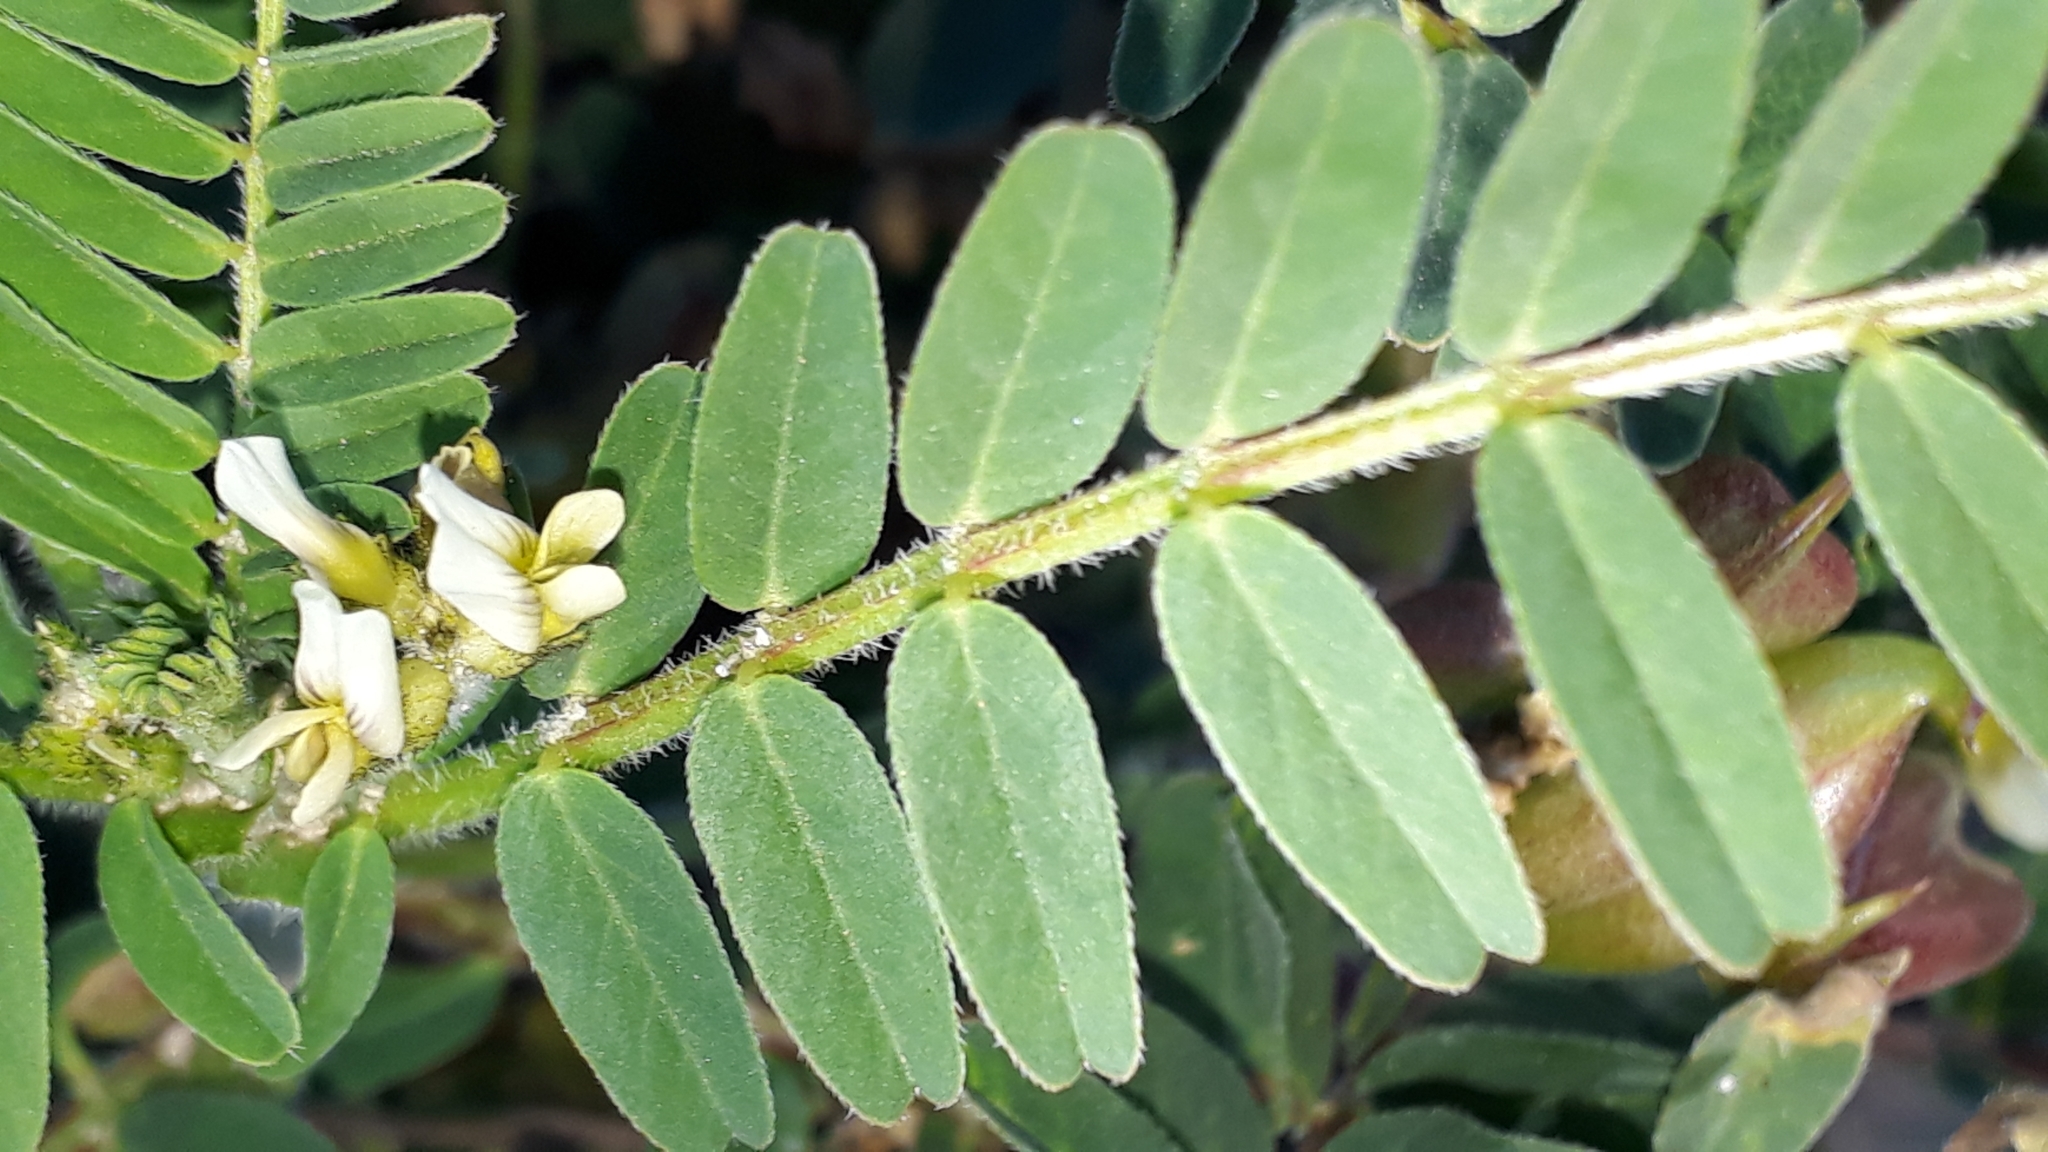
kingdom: Plantae
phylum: Tracheophyta
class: Magnoliopsida
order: Fabales
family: Fabaceae
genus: Astragalus
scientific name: Astragalus boeticus
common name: Milk-vetch
